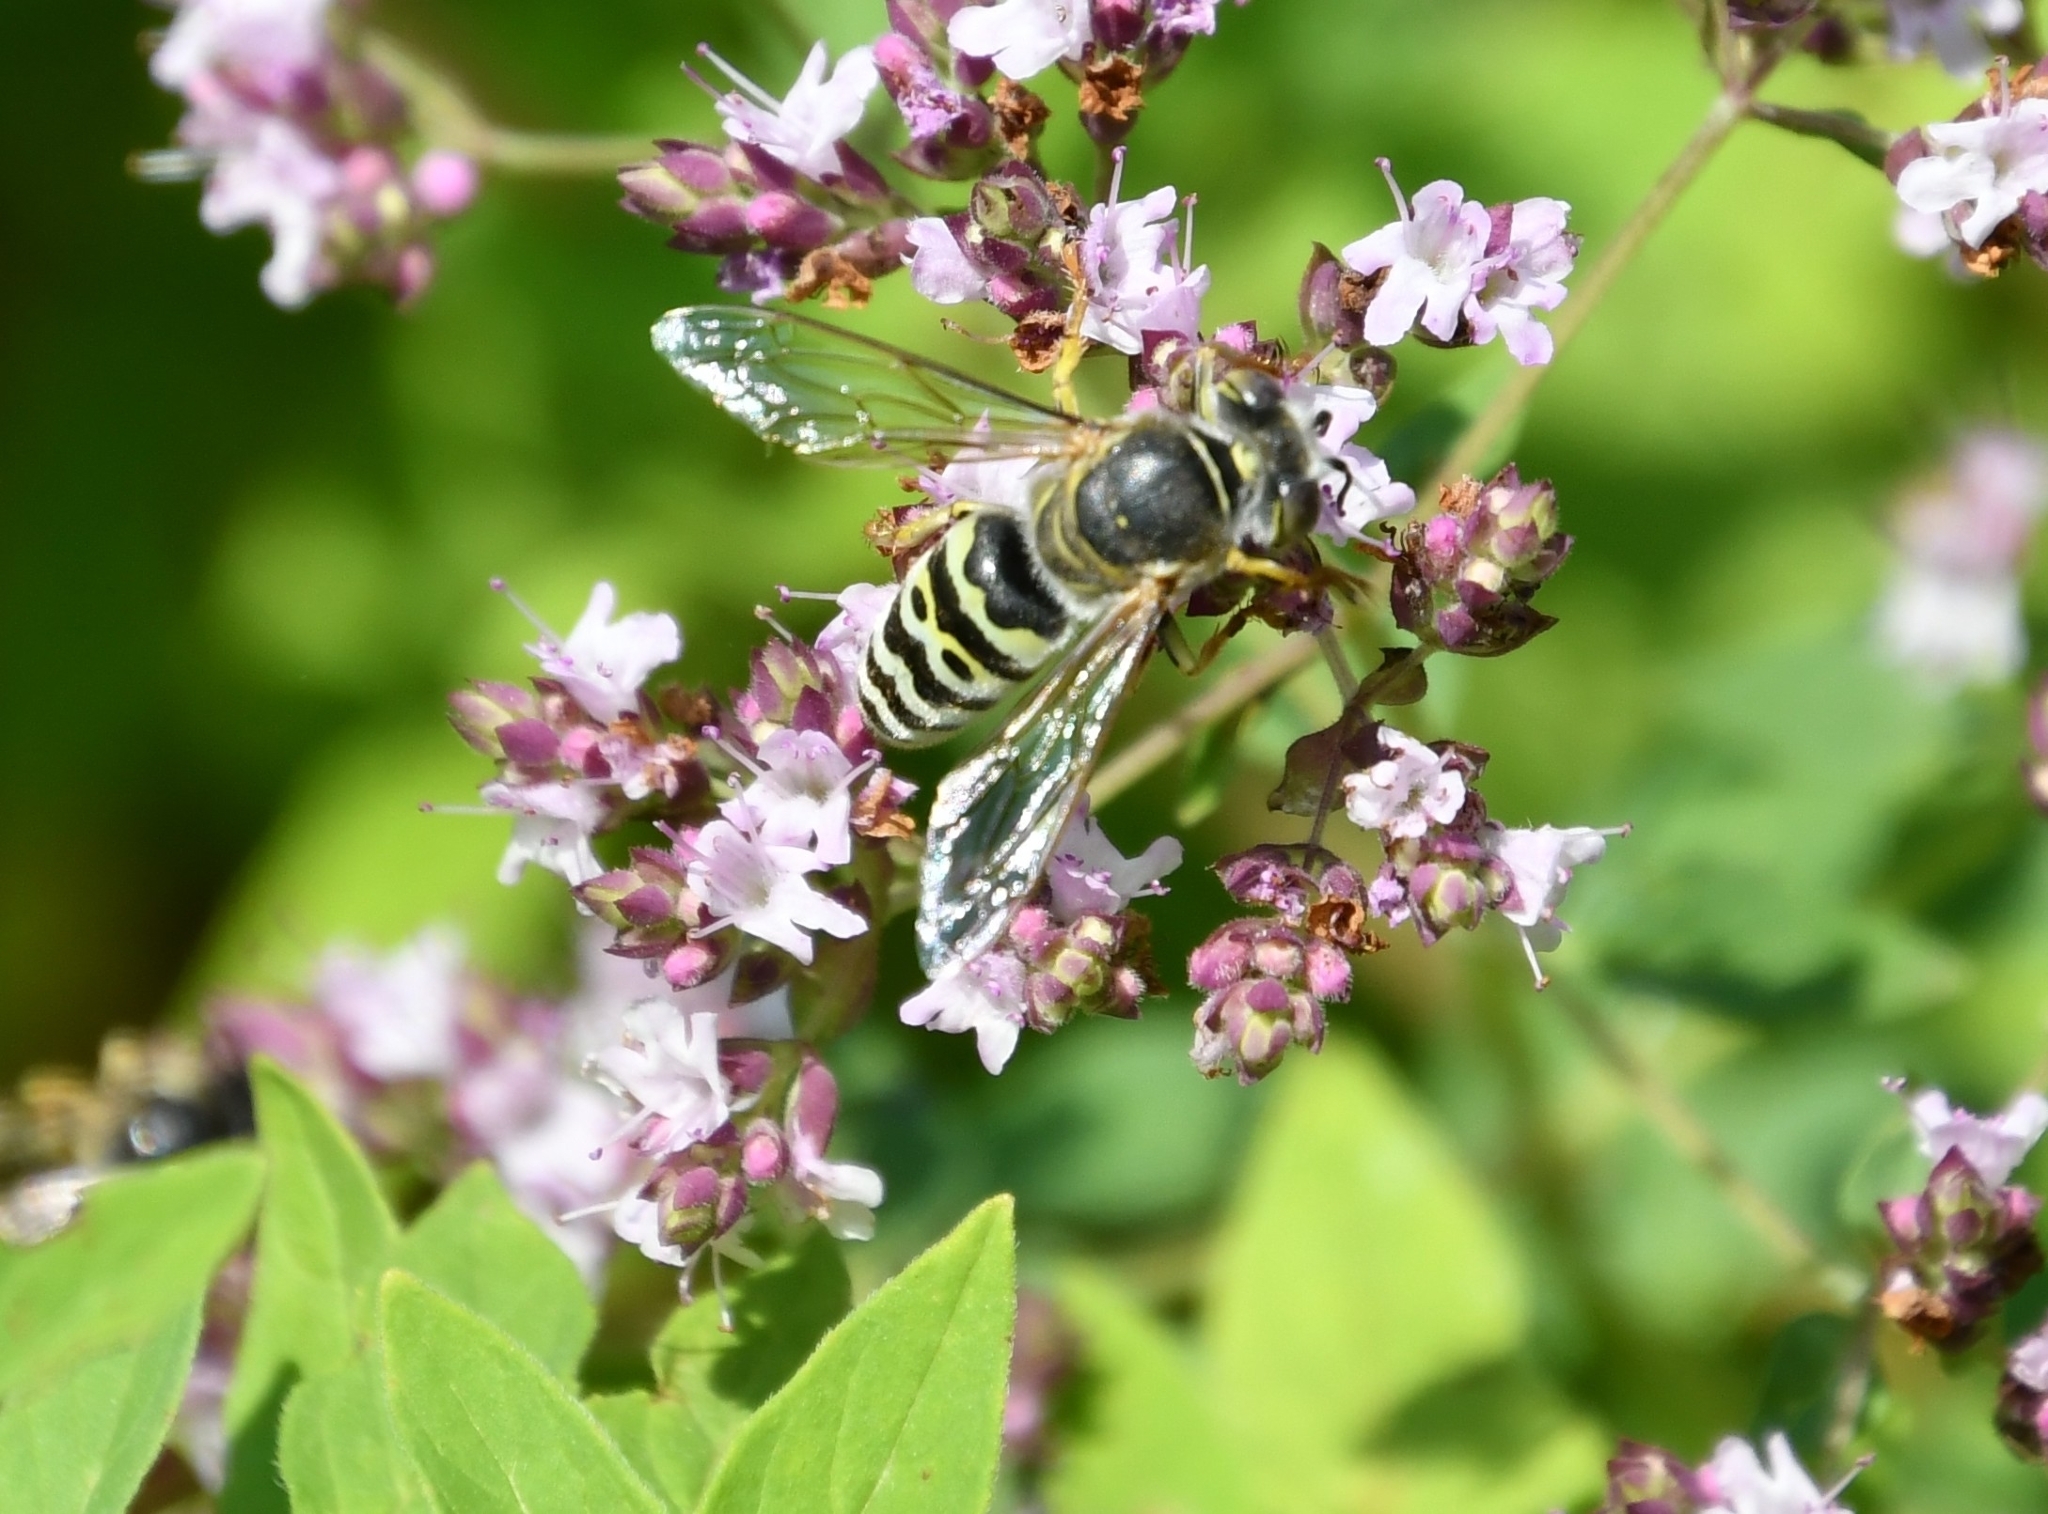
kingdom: Animalia
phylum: Arthropoda
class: Insecta
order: Hymenoptera
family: Crabronidae
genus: Bembix
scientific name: Bembix oculata
